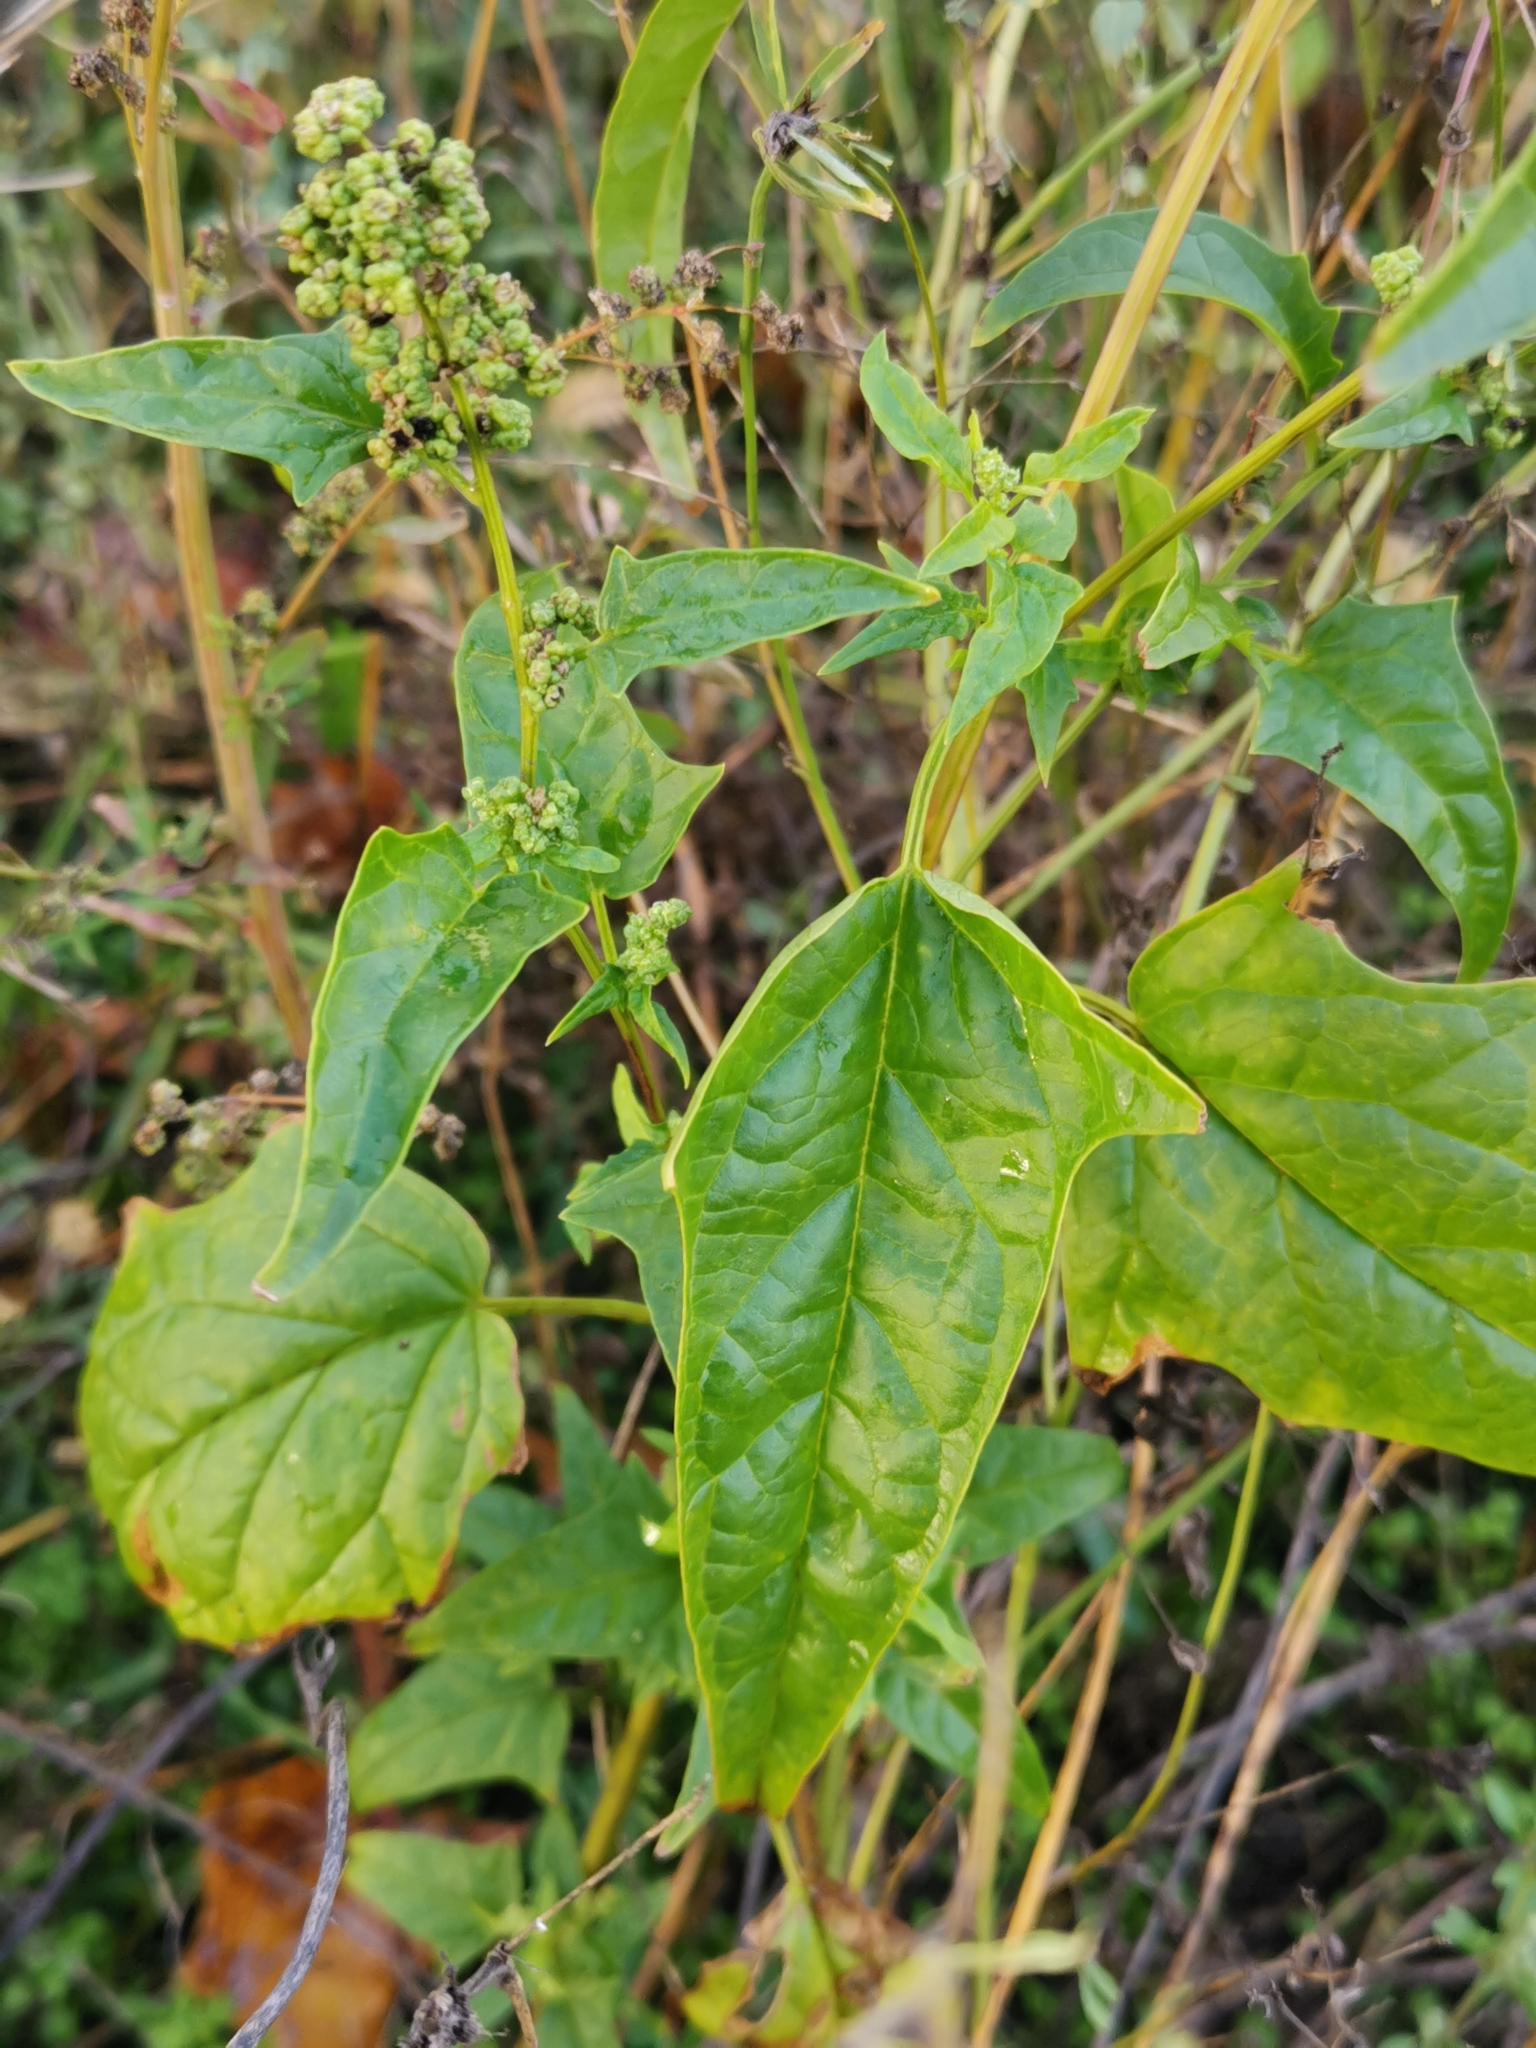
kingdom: Plantae
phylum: Tracheophyta
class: Magnoliopsida
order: Caryophyllales
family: Amaranthaceae
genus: Chenopodiastrum
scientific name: Chenopodiastrum hybridum
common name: Mapleleaf goosefoot
